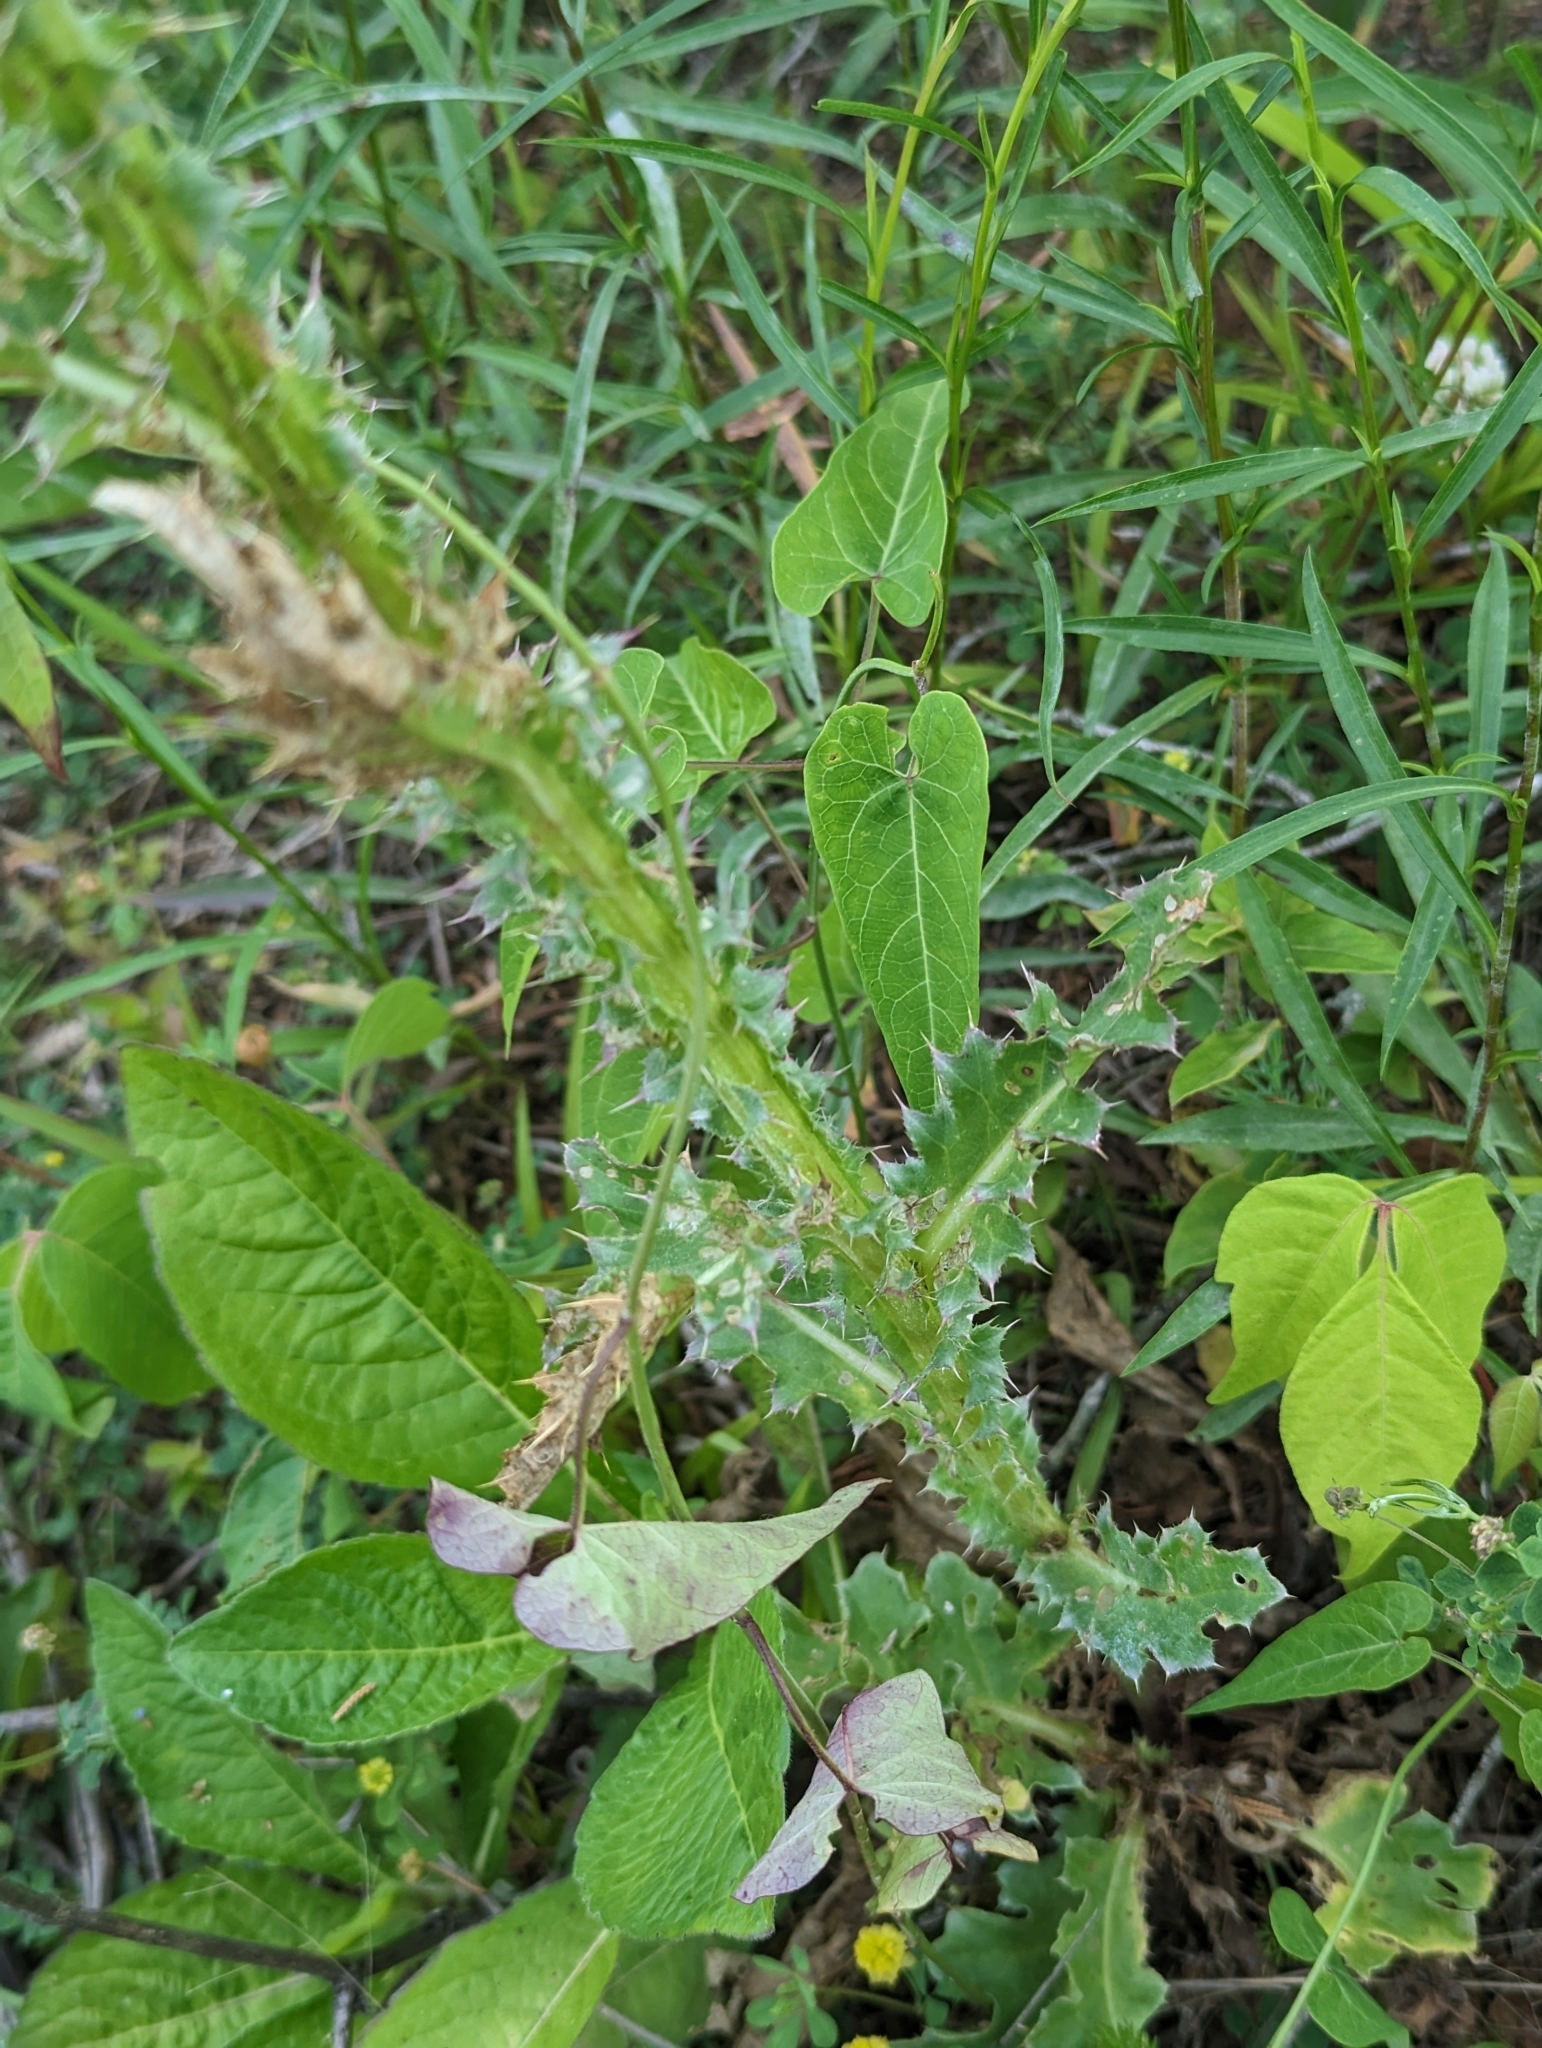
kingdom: Plantae
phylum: Tracheophyta
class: Magnoliopsida
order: Asterales
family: Asteraceae
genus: Carduus
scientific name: Carduus nutans
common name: Musk thistle
